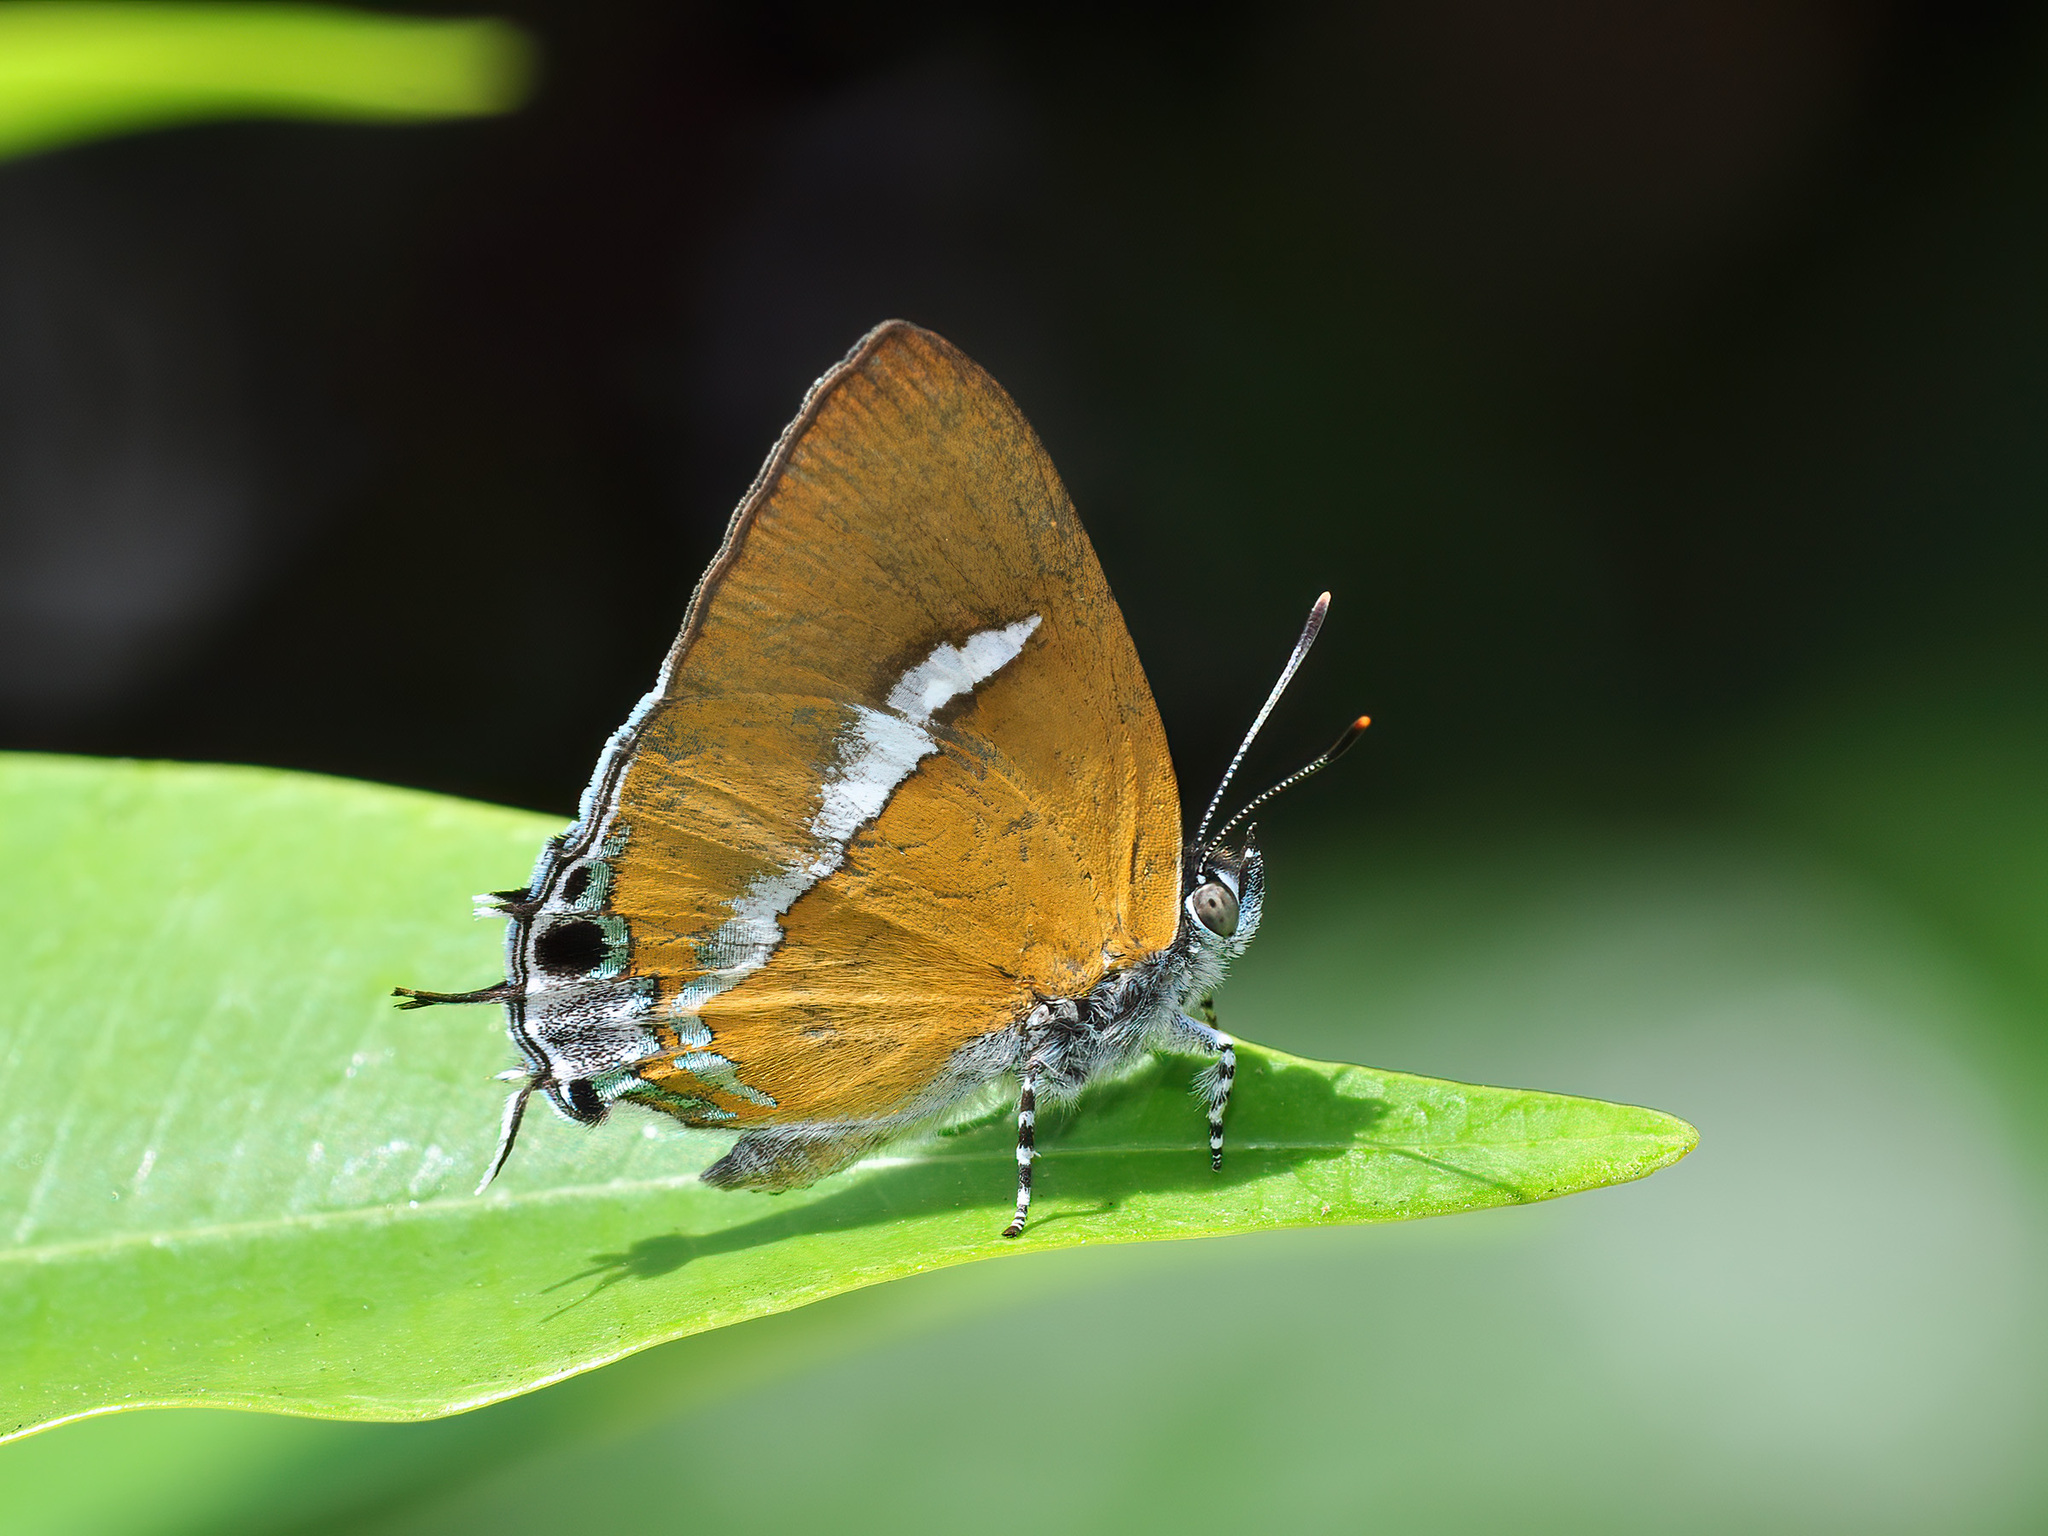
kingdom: Animalia
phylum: Arthropoda
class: Insecta
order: Lepidoptera
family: Lycaenidae
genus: Horaga
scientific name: Horaga syrinx
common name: Ambon onyx
